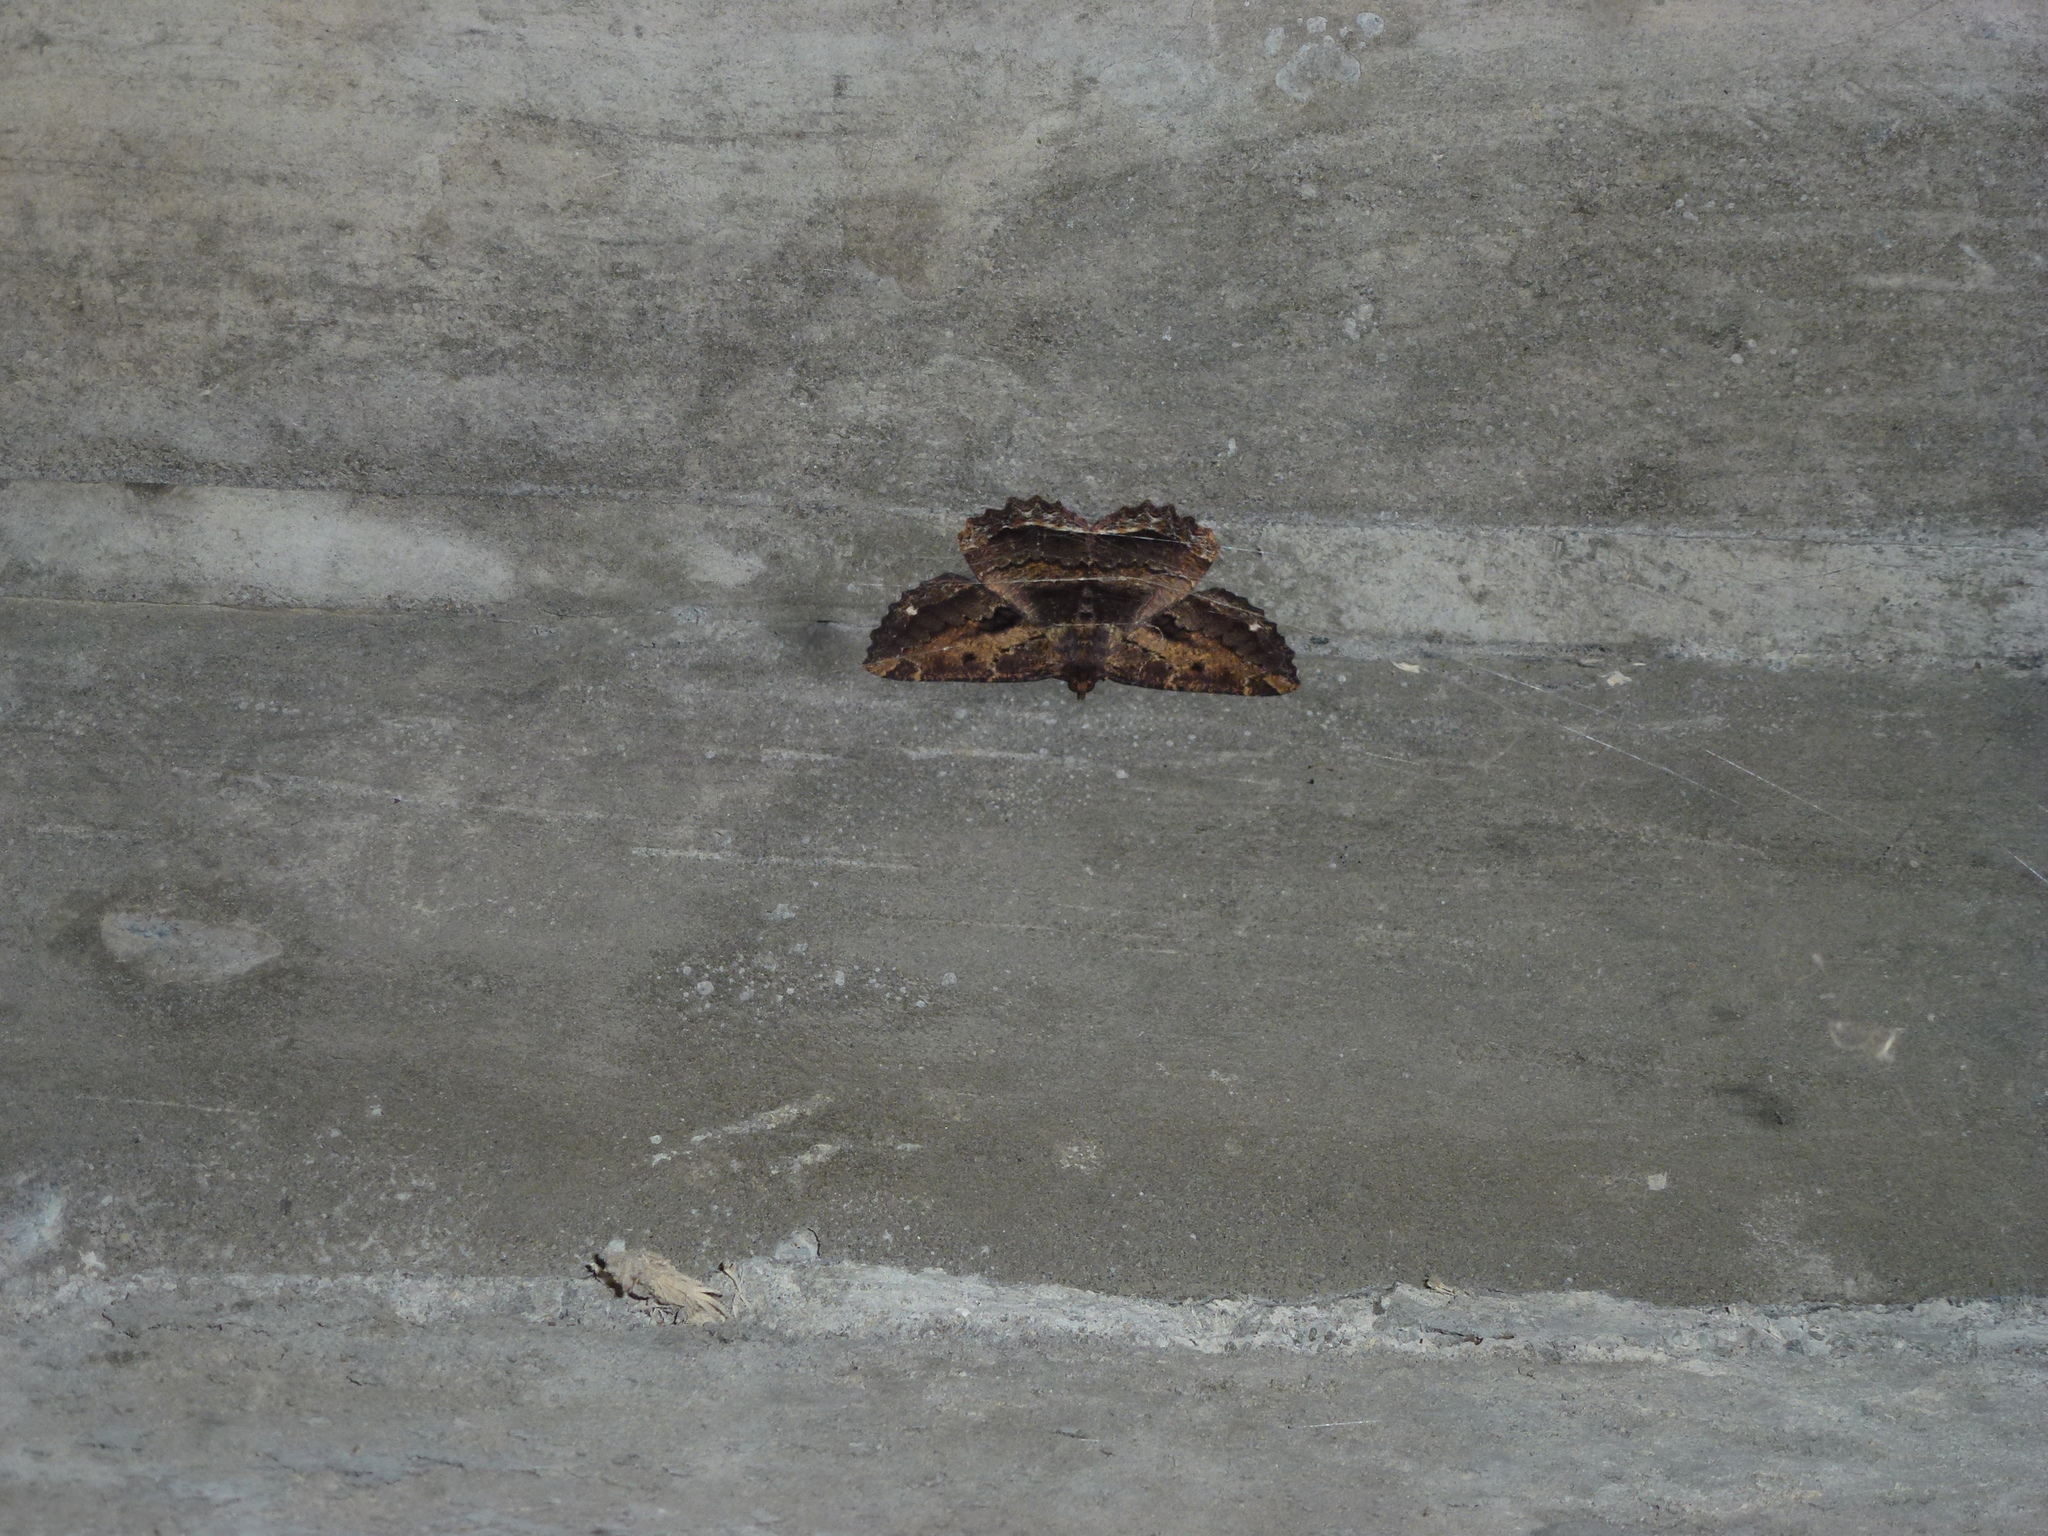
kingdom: Animalia
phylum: Arthropoda
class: Insecta
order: Lepidoptera
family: Geometridae
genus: Gellonia
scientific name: Gellonia dejectaria
